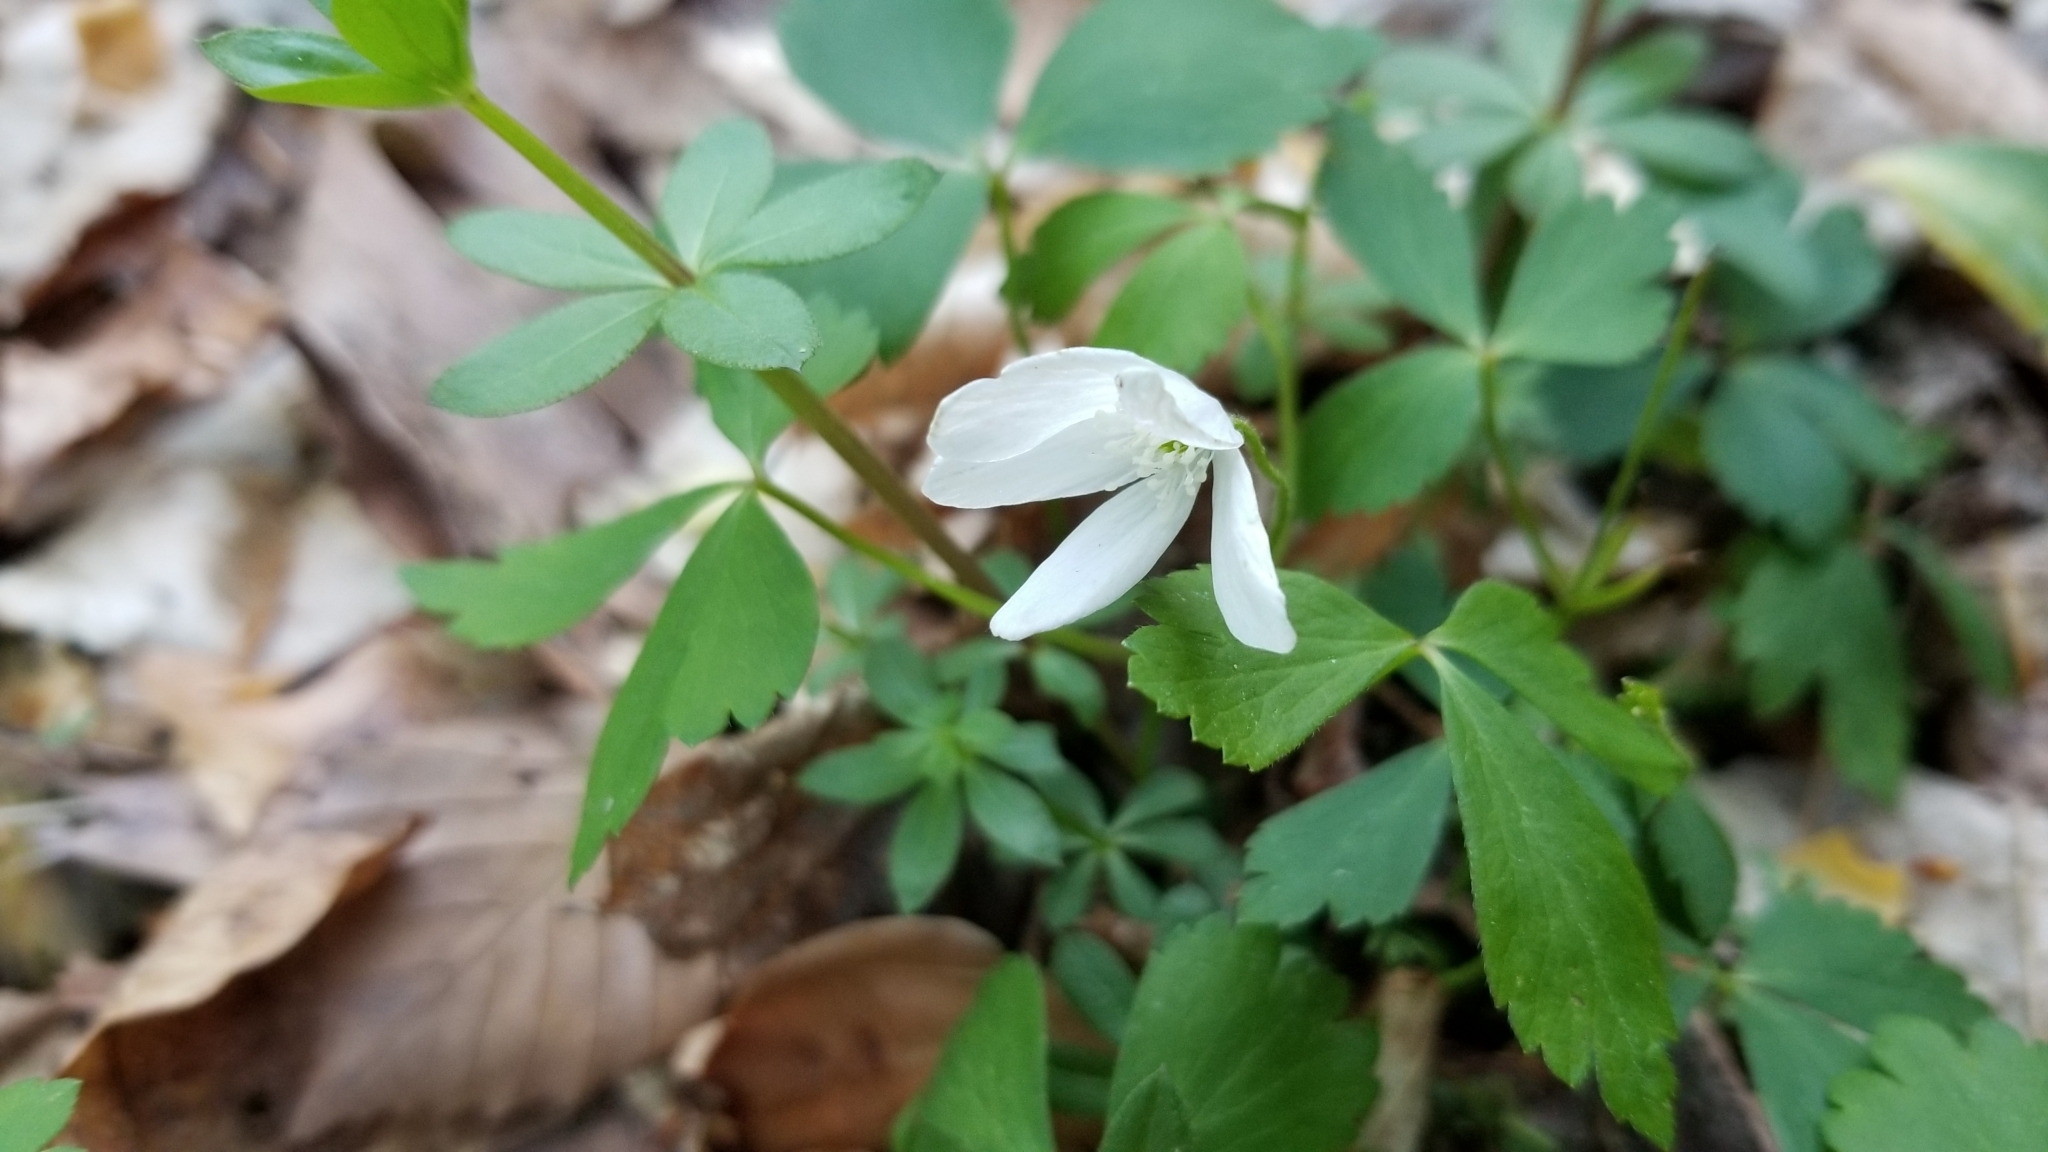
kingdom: Plantae
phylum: Tracheophyta
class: Magnoliopsida
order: Ranunculales
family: Ranunculaceae
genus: Anemone
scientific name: Anemone quinquefolia
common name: Wood anemone
